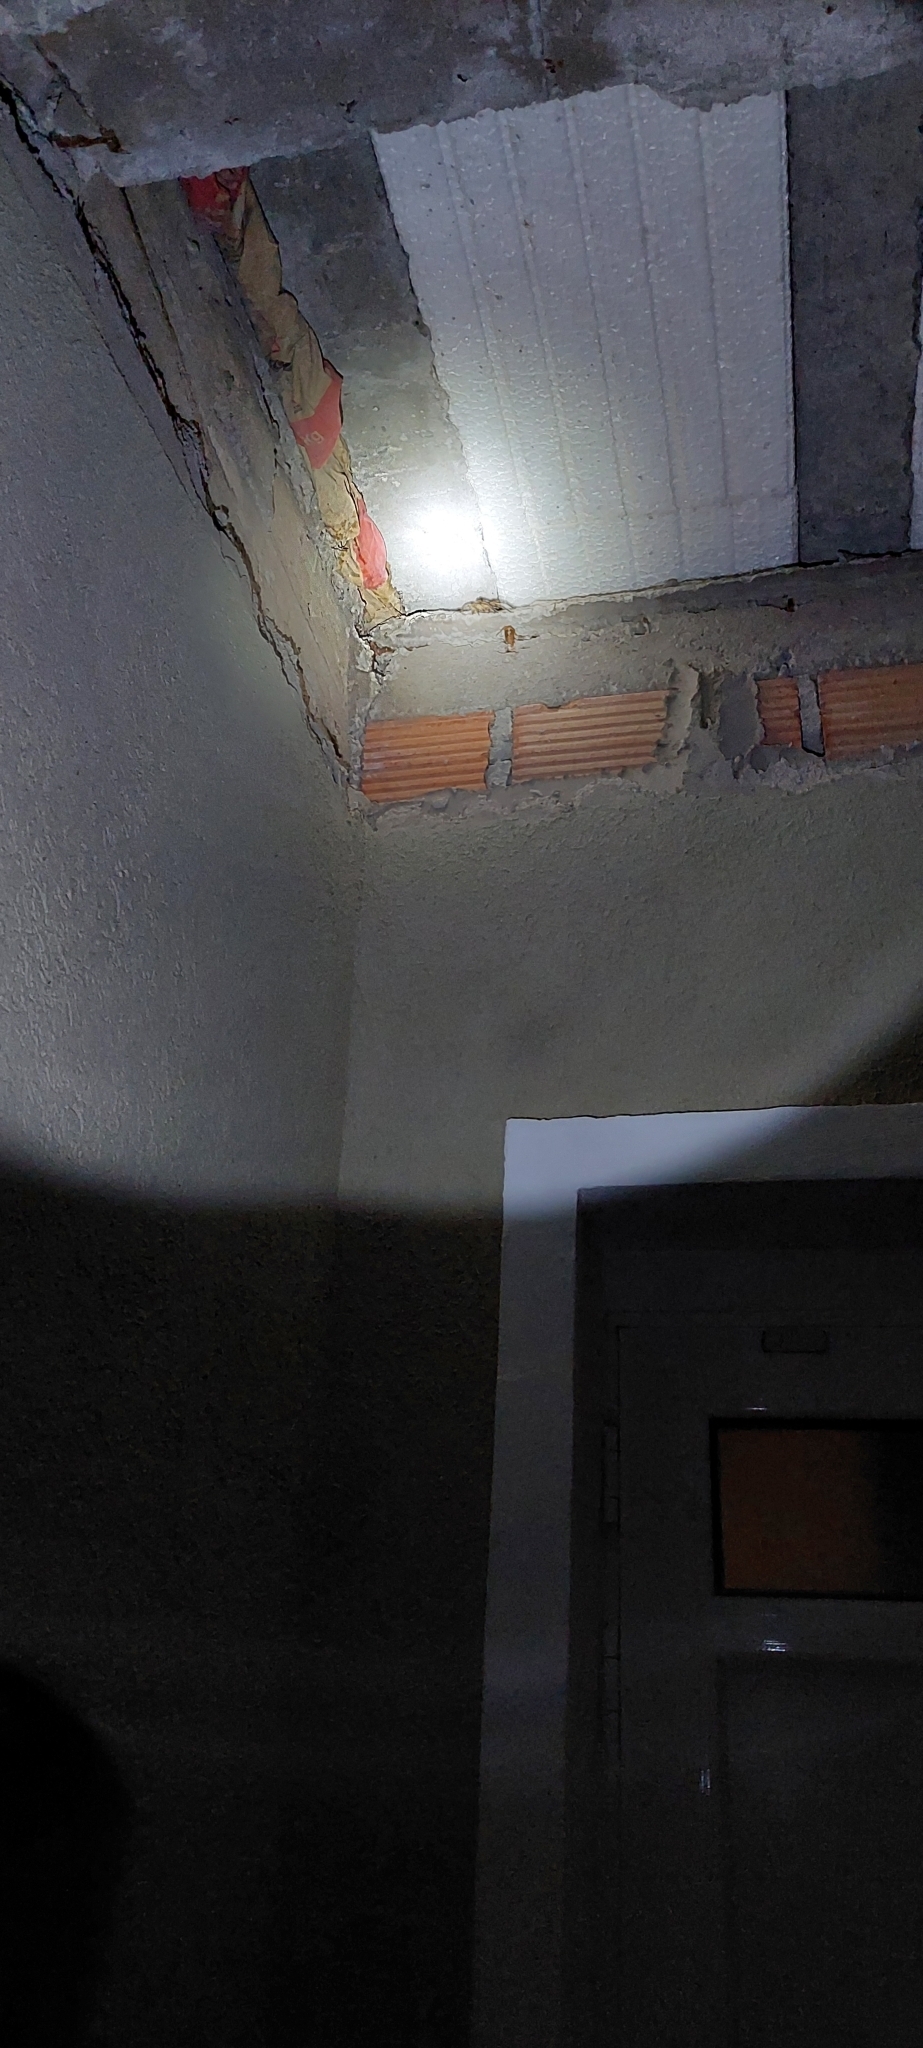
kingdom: Animalia
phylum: Arthropoda
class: Arachnida
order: Araneae
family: Sparassidae
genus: Polybetes
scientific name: Polybetes pythagoricus
